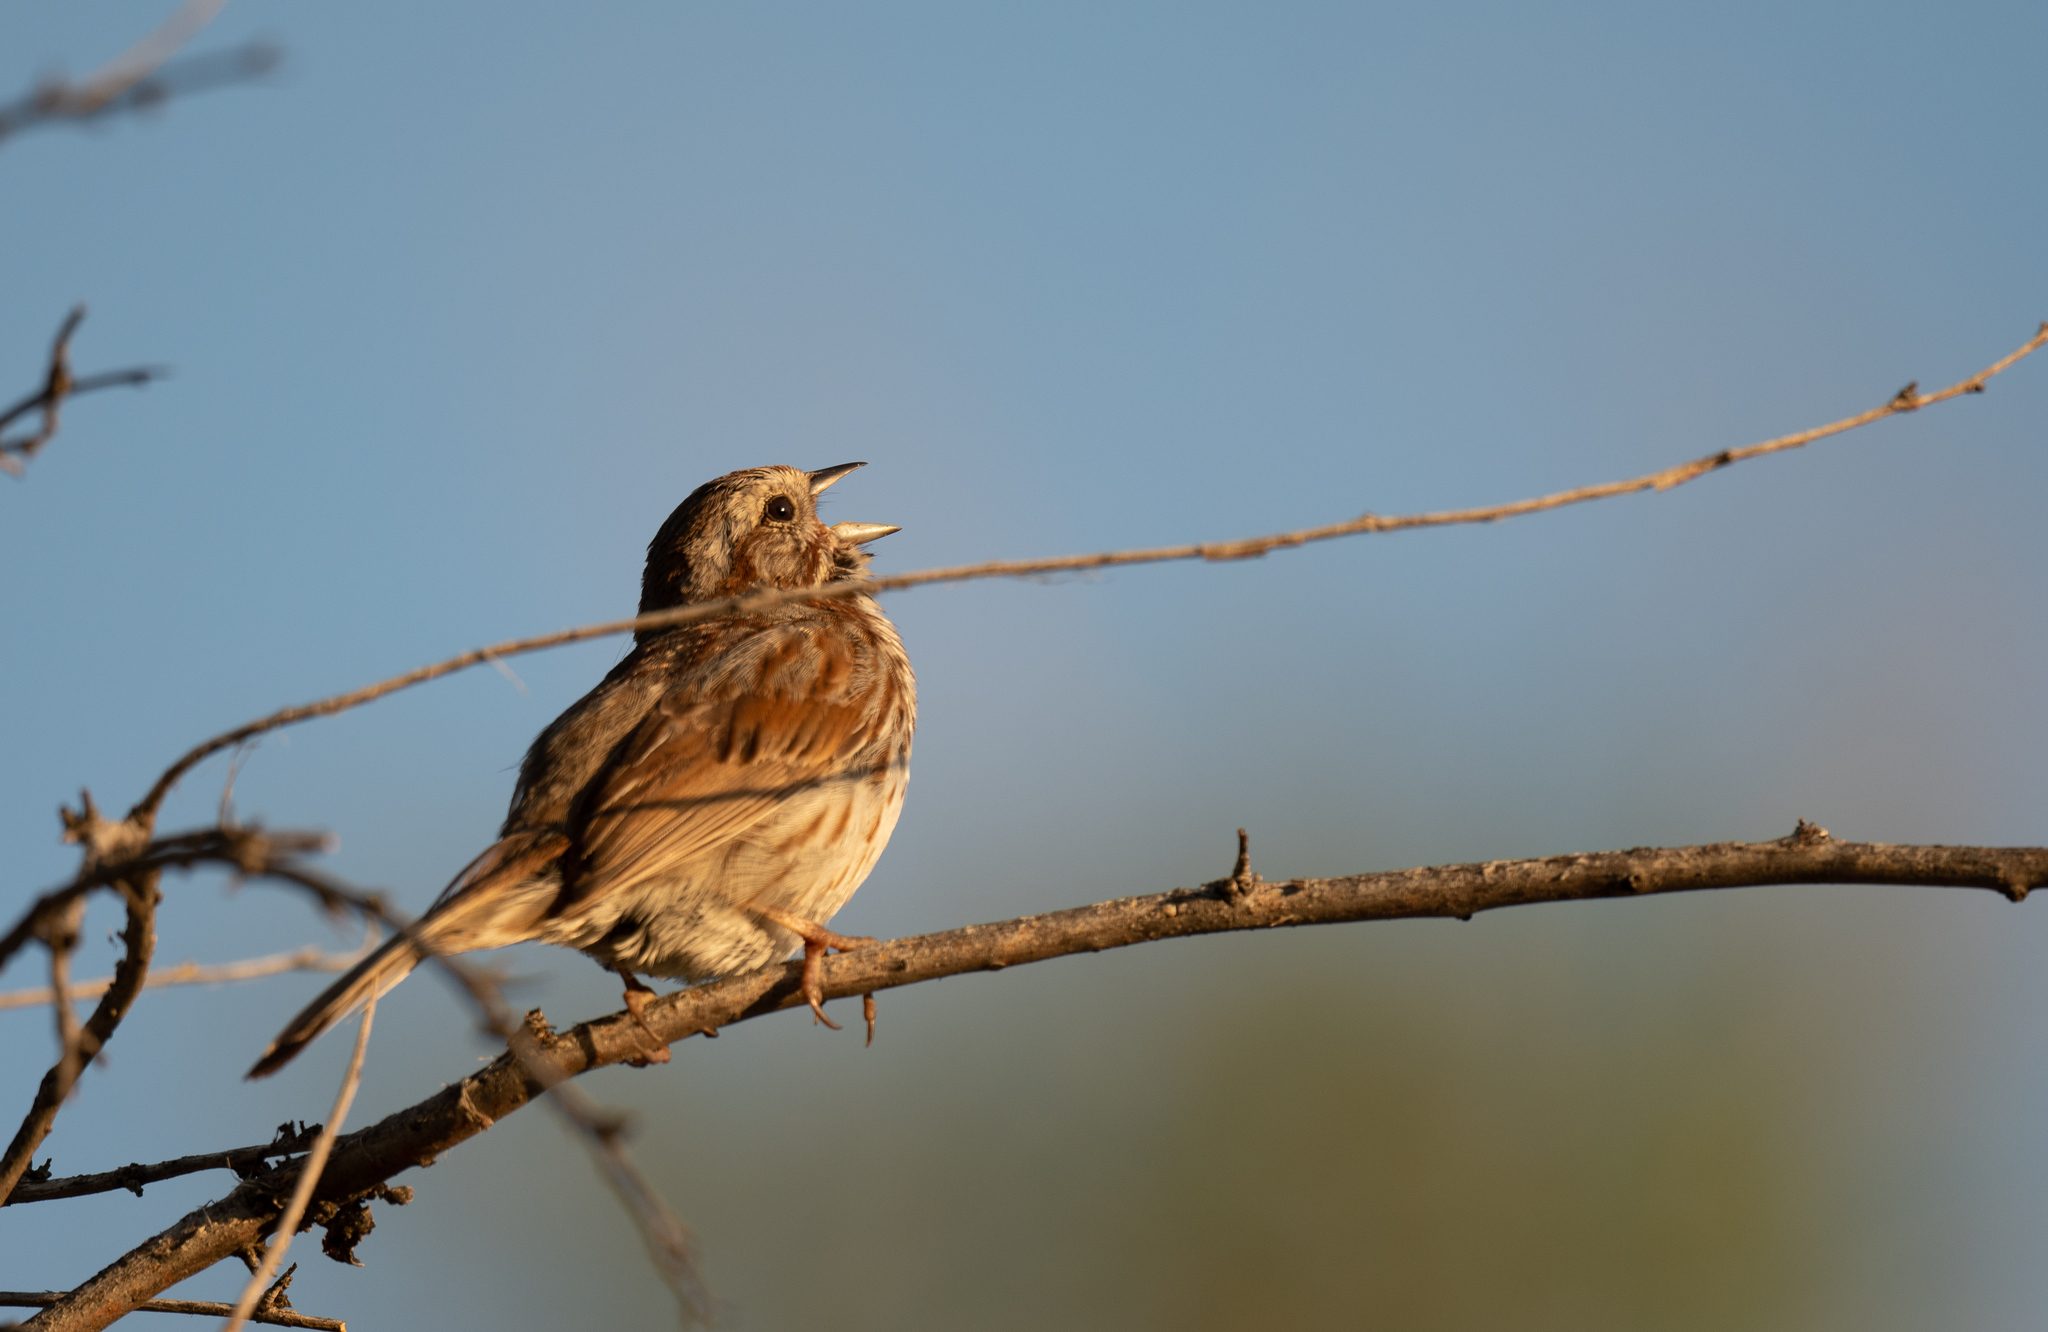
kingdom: Animalia
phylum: Chordata
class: Aves
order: Passeriformes
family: Passerellidae
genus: Melospiza
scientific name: Melospiza melodia
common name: Song sparrow
